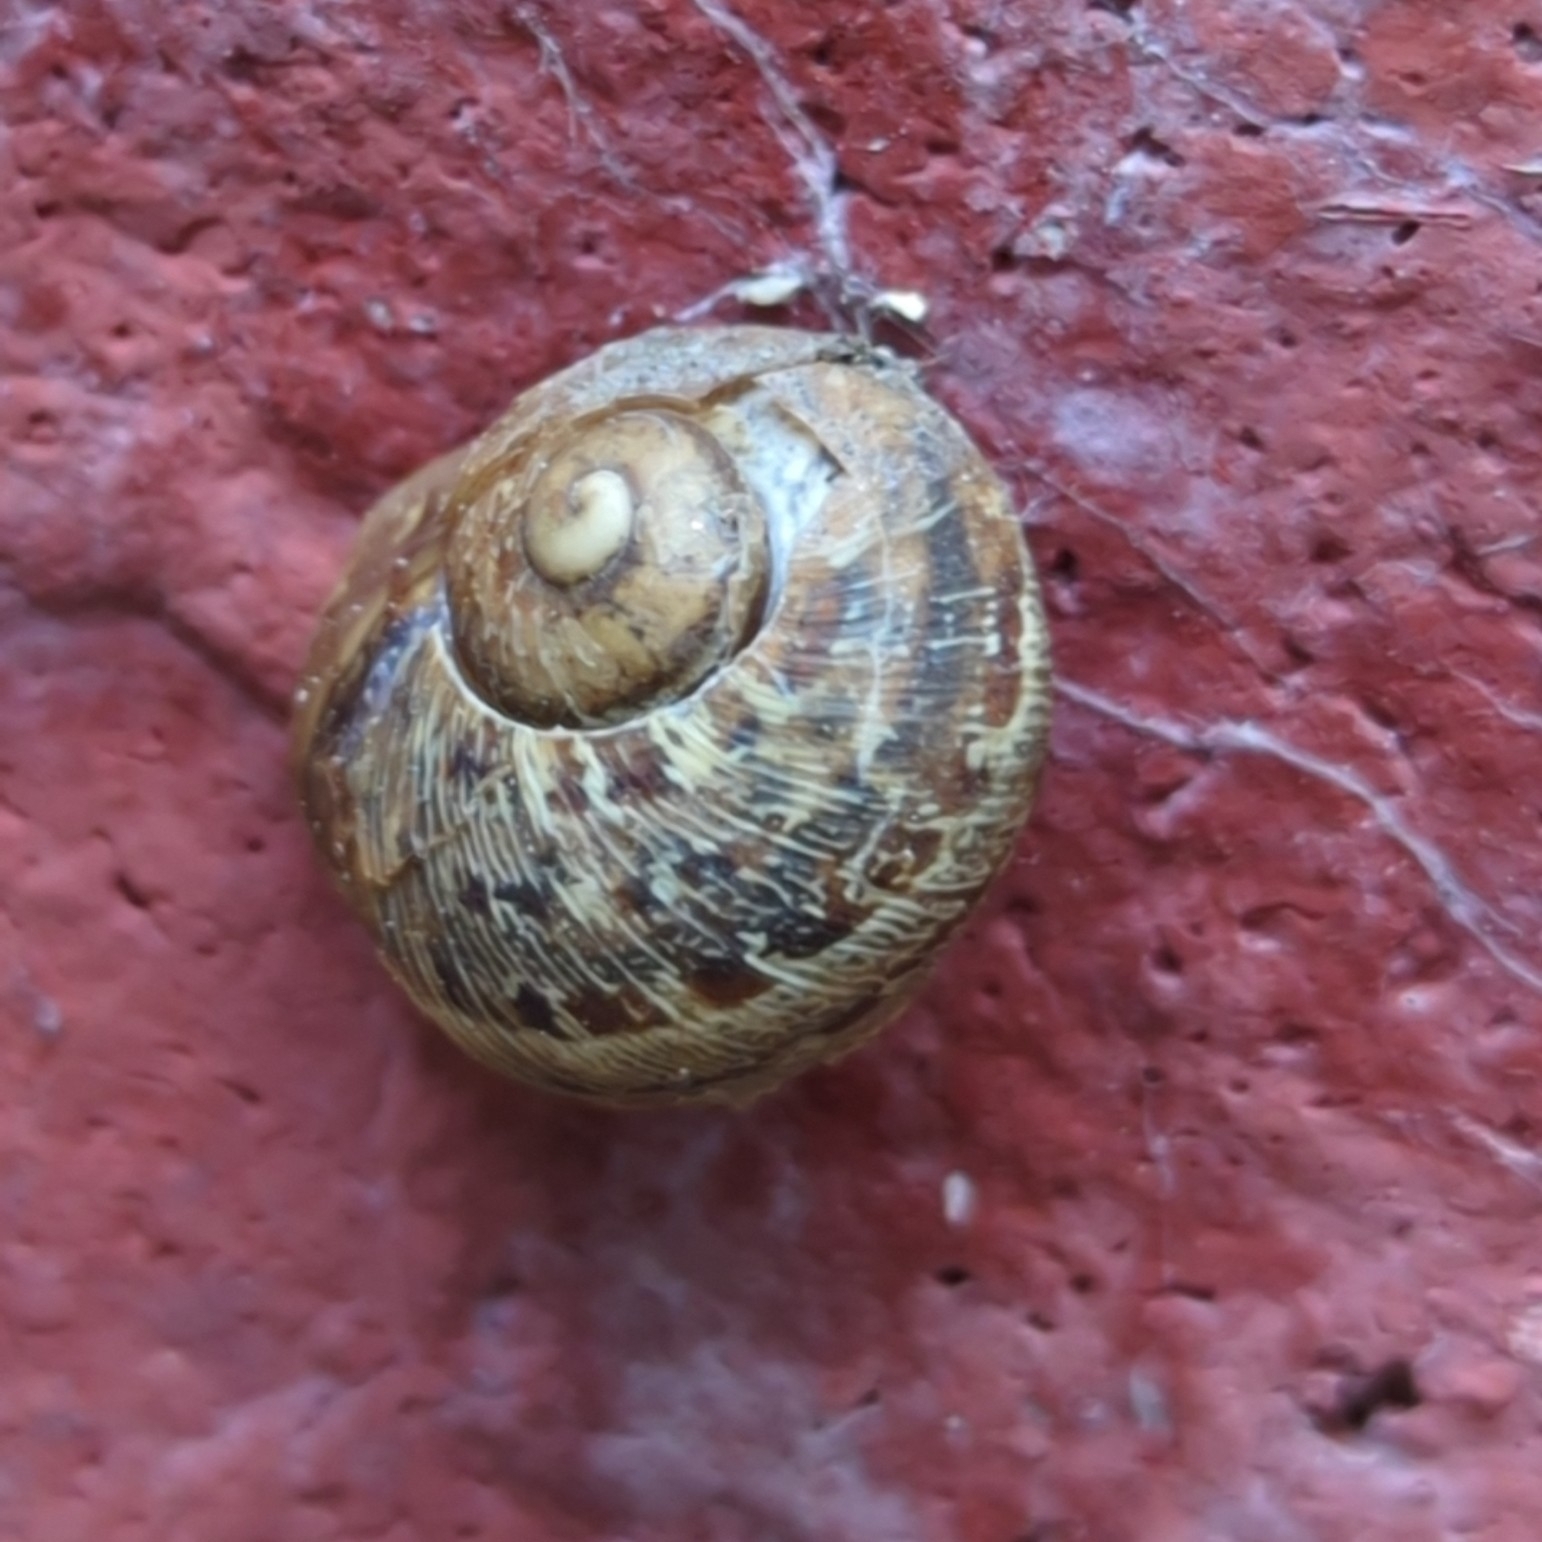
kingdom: Animalia
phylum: Mollusca
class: Gastropoda
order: Stylommatophora
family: Helicidae
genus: Cornu
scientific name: Cornu aspersum
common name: Brown garden snail
